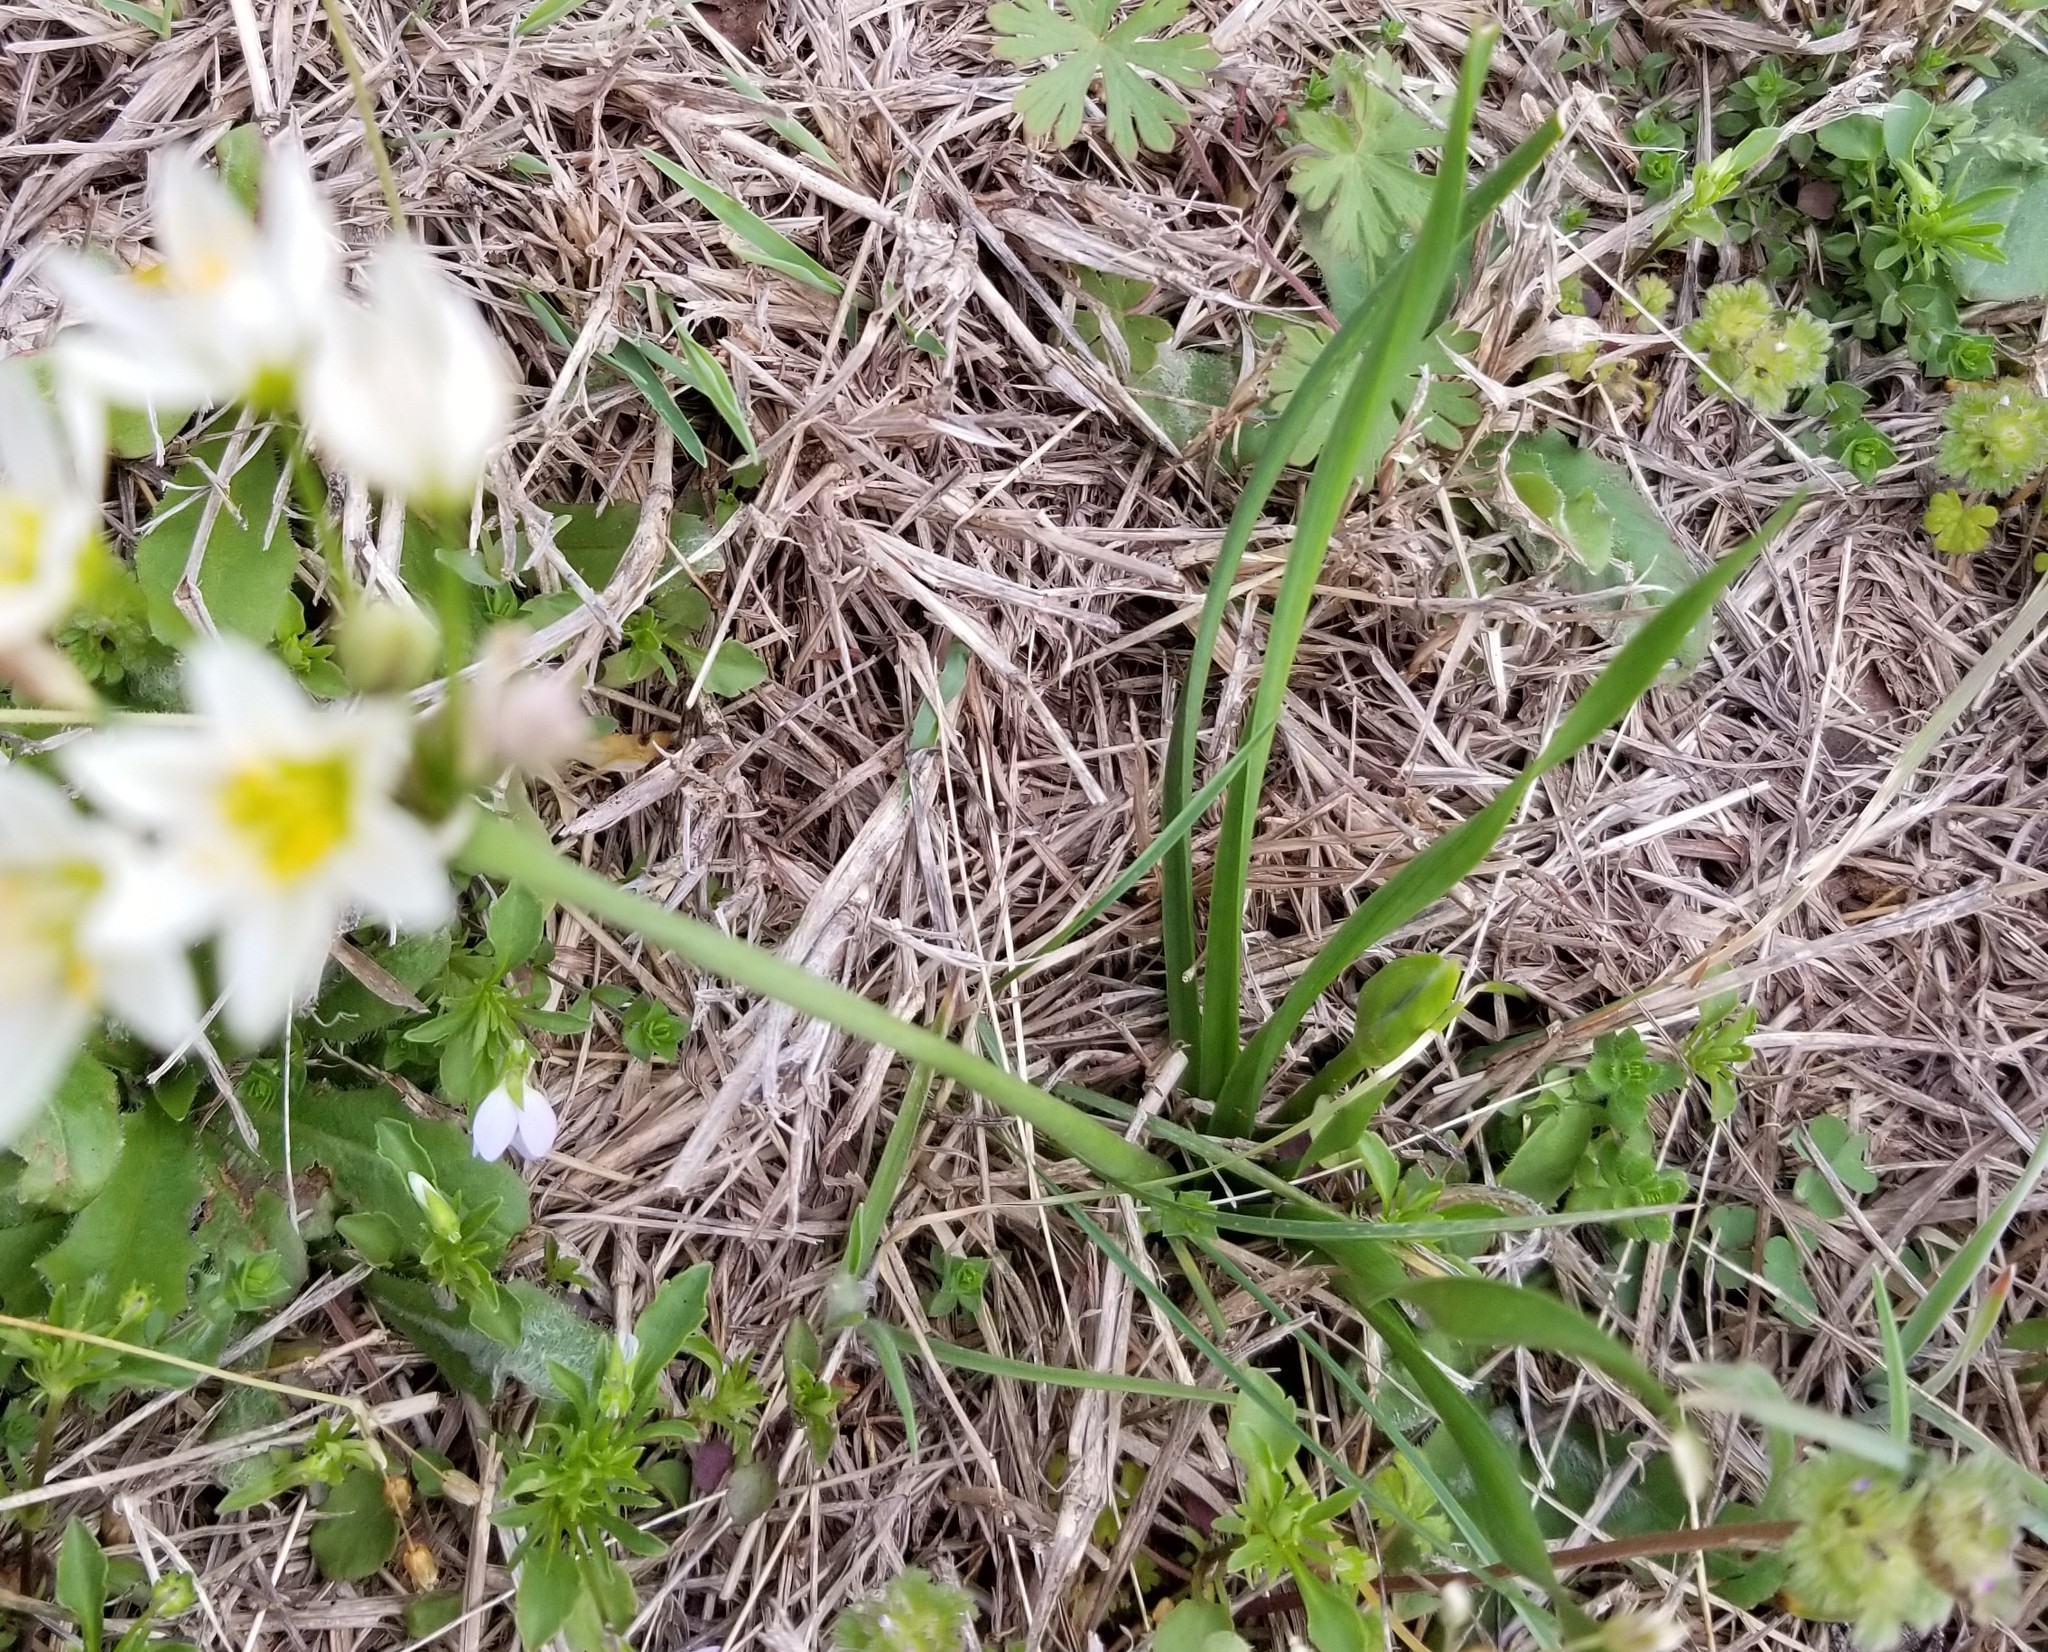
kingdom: Plantae
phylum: Tracheophyta
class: Liliopsida
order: Asparagales
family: Amaryllidaceae
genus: Nothoscordum
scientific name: Nothoscordum bivalve
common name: Crow-poison
